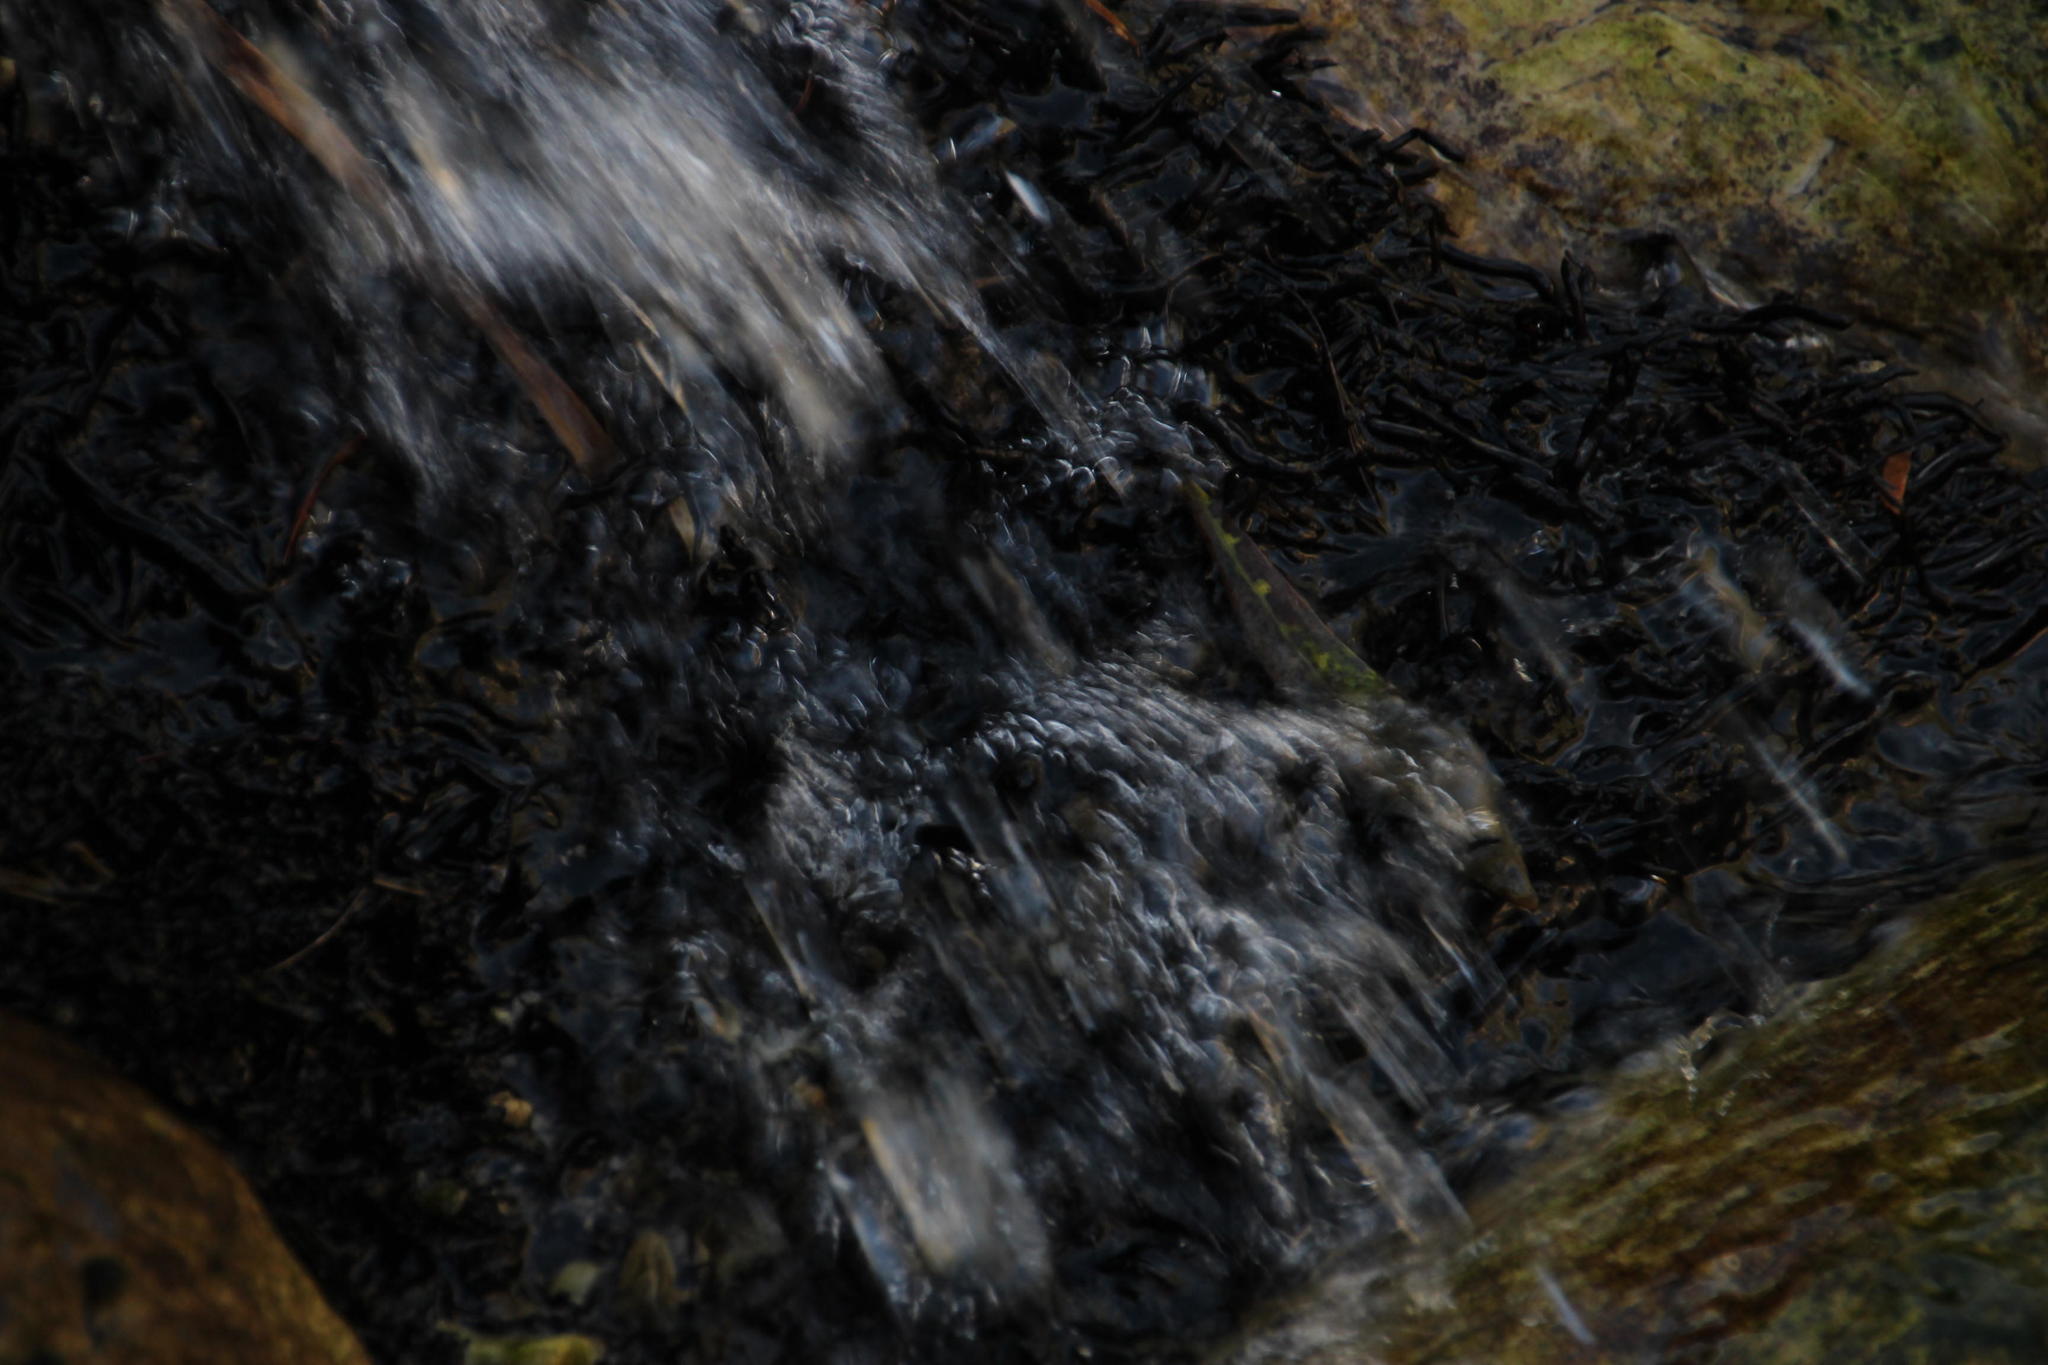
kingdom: Plantae
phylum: Bryophyta
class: Bryopsida
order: Dicranales
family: Dicranaceae
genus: Wardia
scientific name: Wardia hygrometrica
